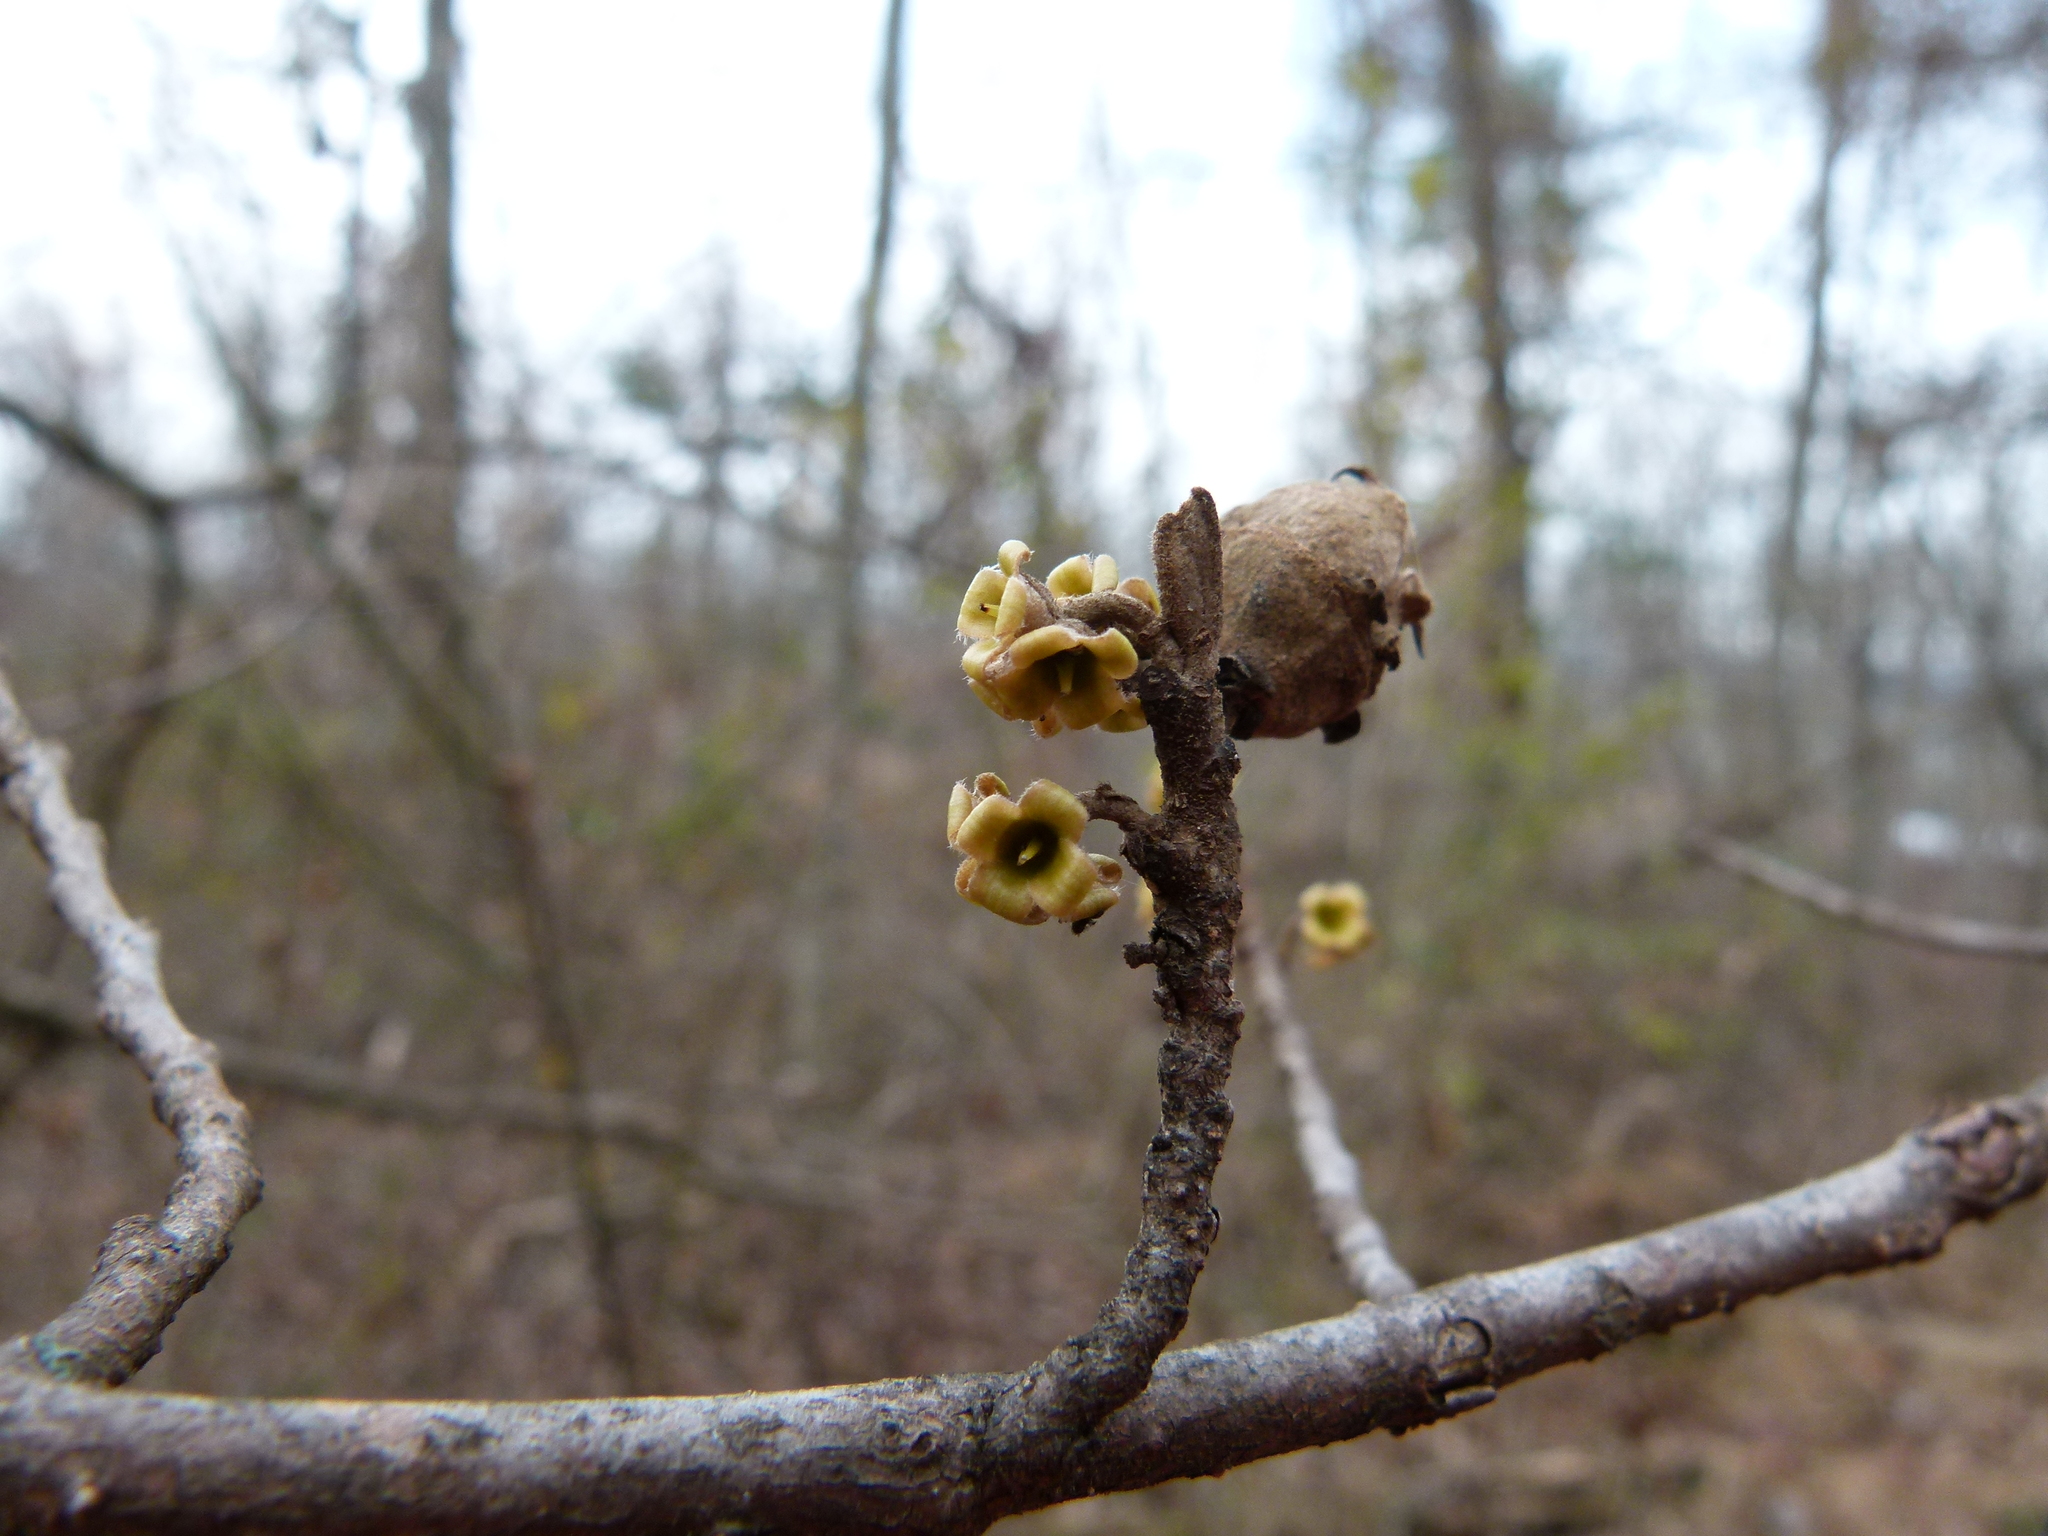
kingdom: Plantae
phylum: Tracheophyta
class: Magnoliopsida
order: Saxifragales
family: Hamamelidaceae
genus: Hamamelis
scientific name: Hamamelis virginiana
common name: Witch-hazel
